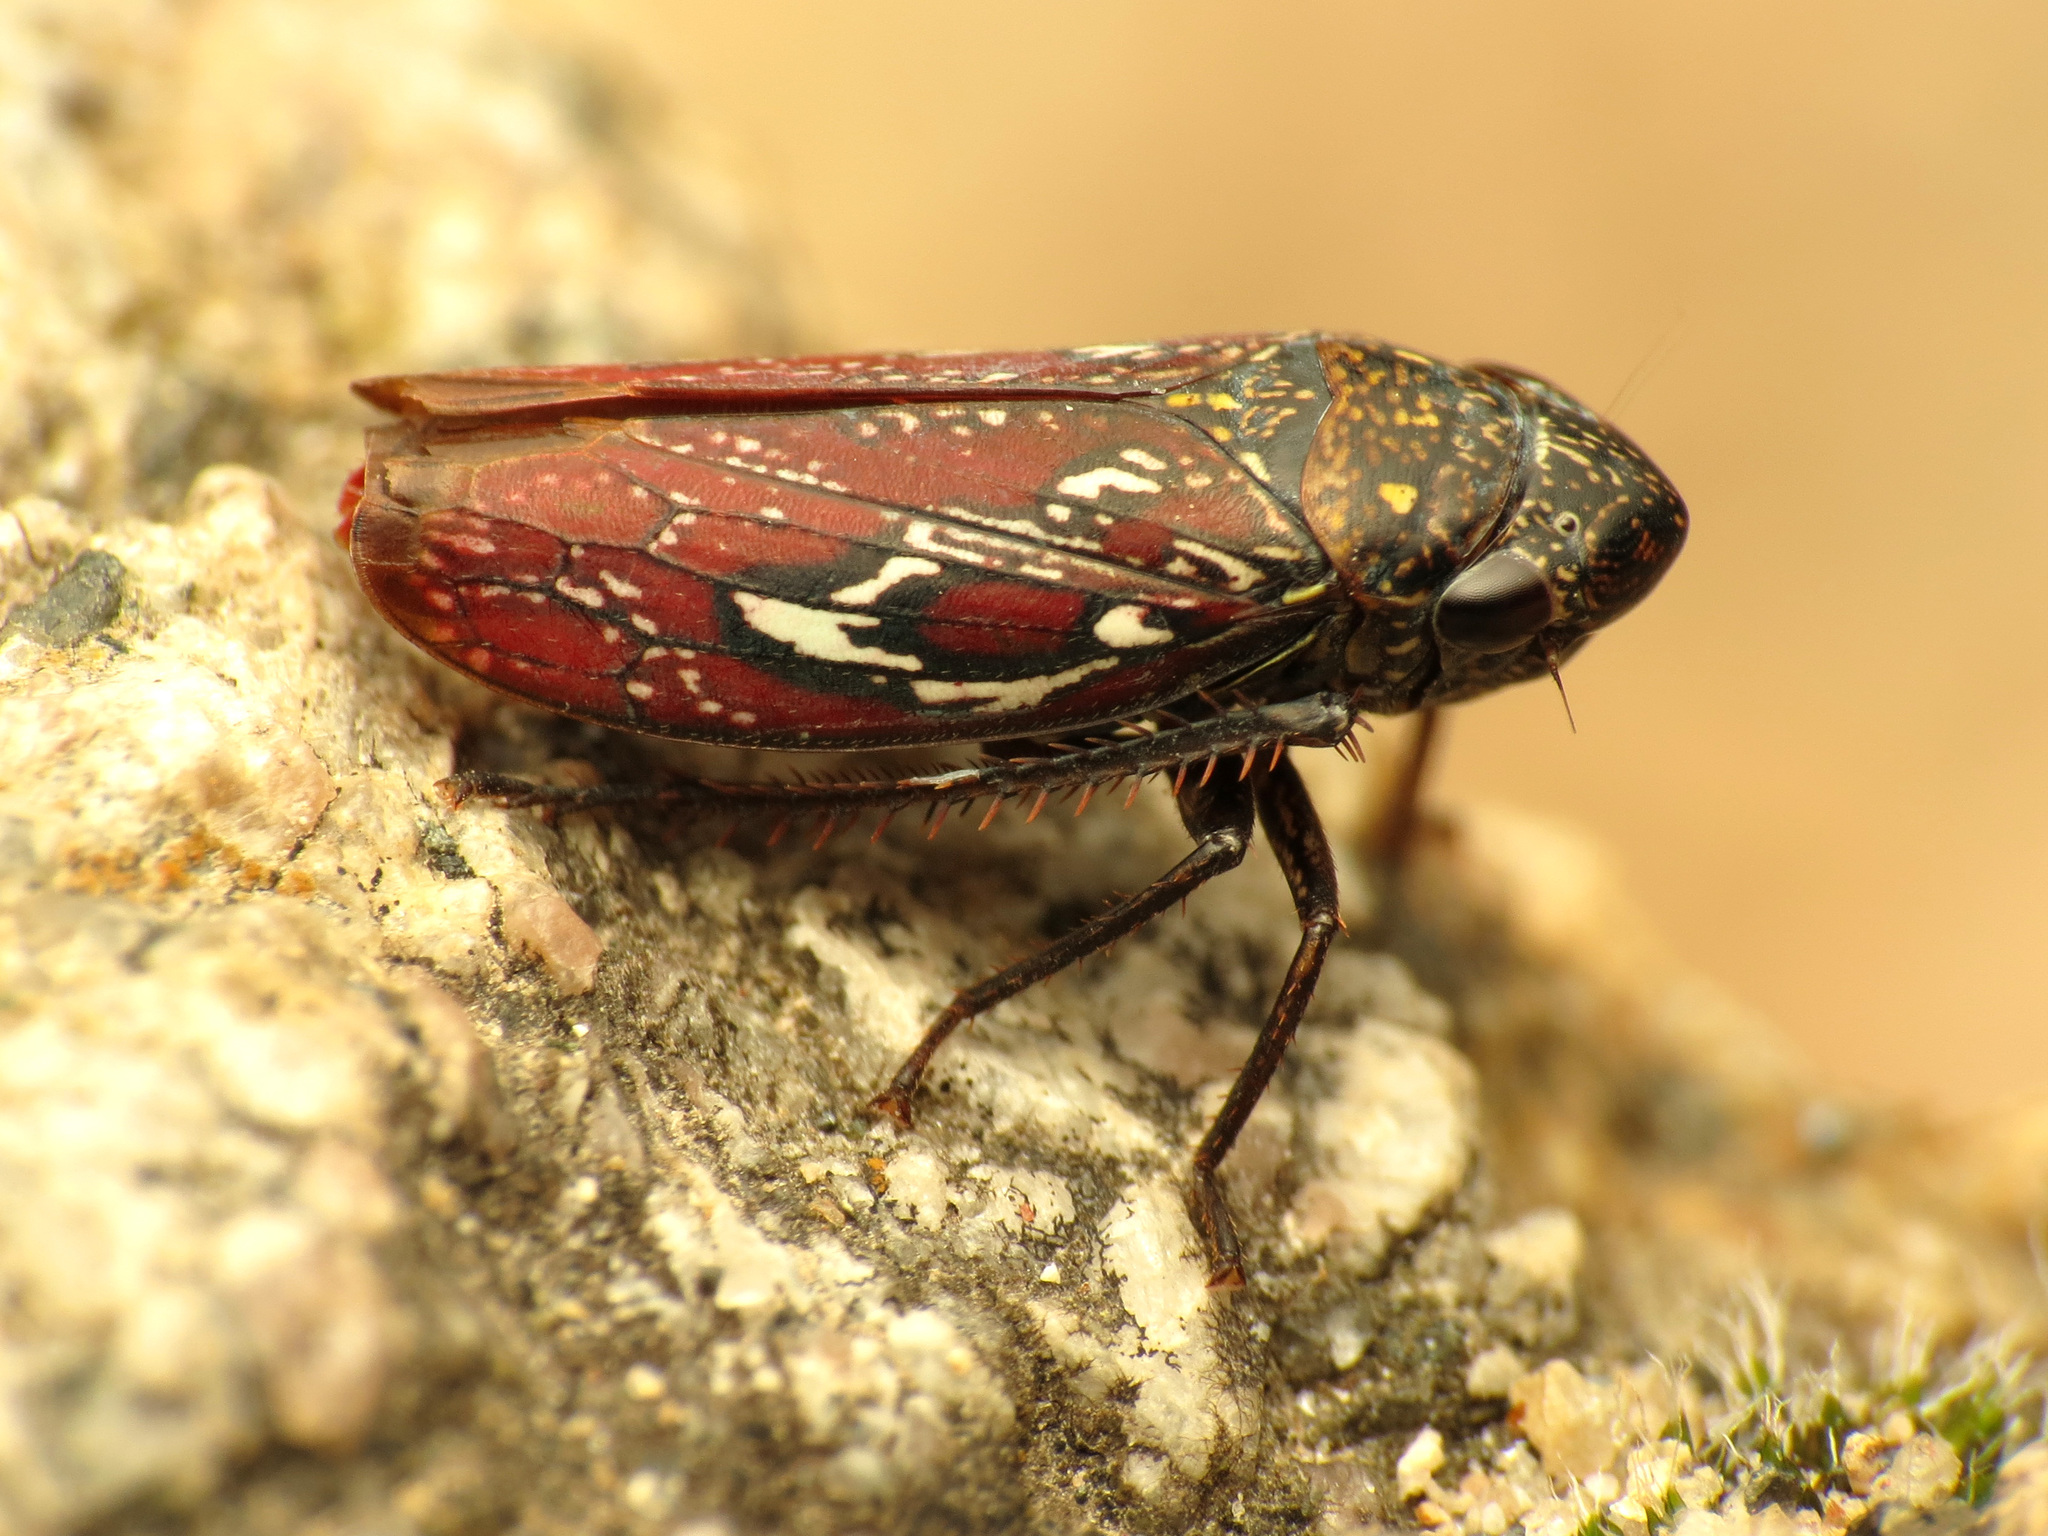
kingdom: Animalia
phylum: Arthropoda
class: Insecta
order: Hemiptera
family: Cicadellidae
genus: Apogonalia
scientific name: Apogonalia omani
